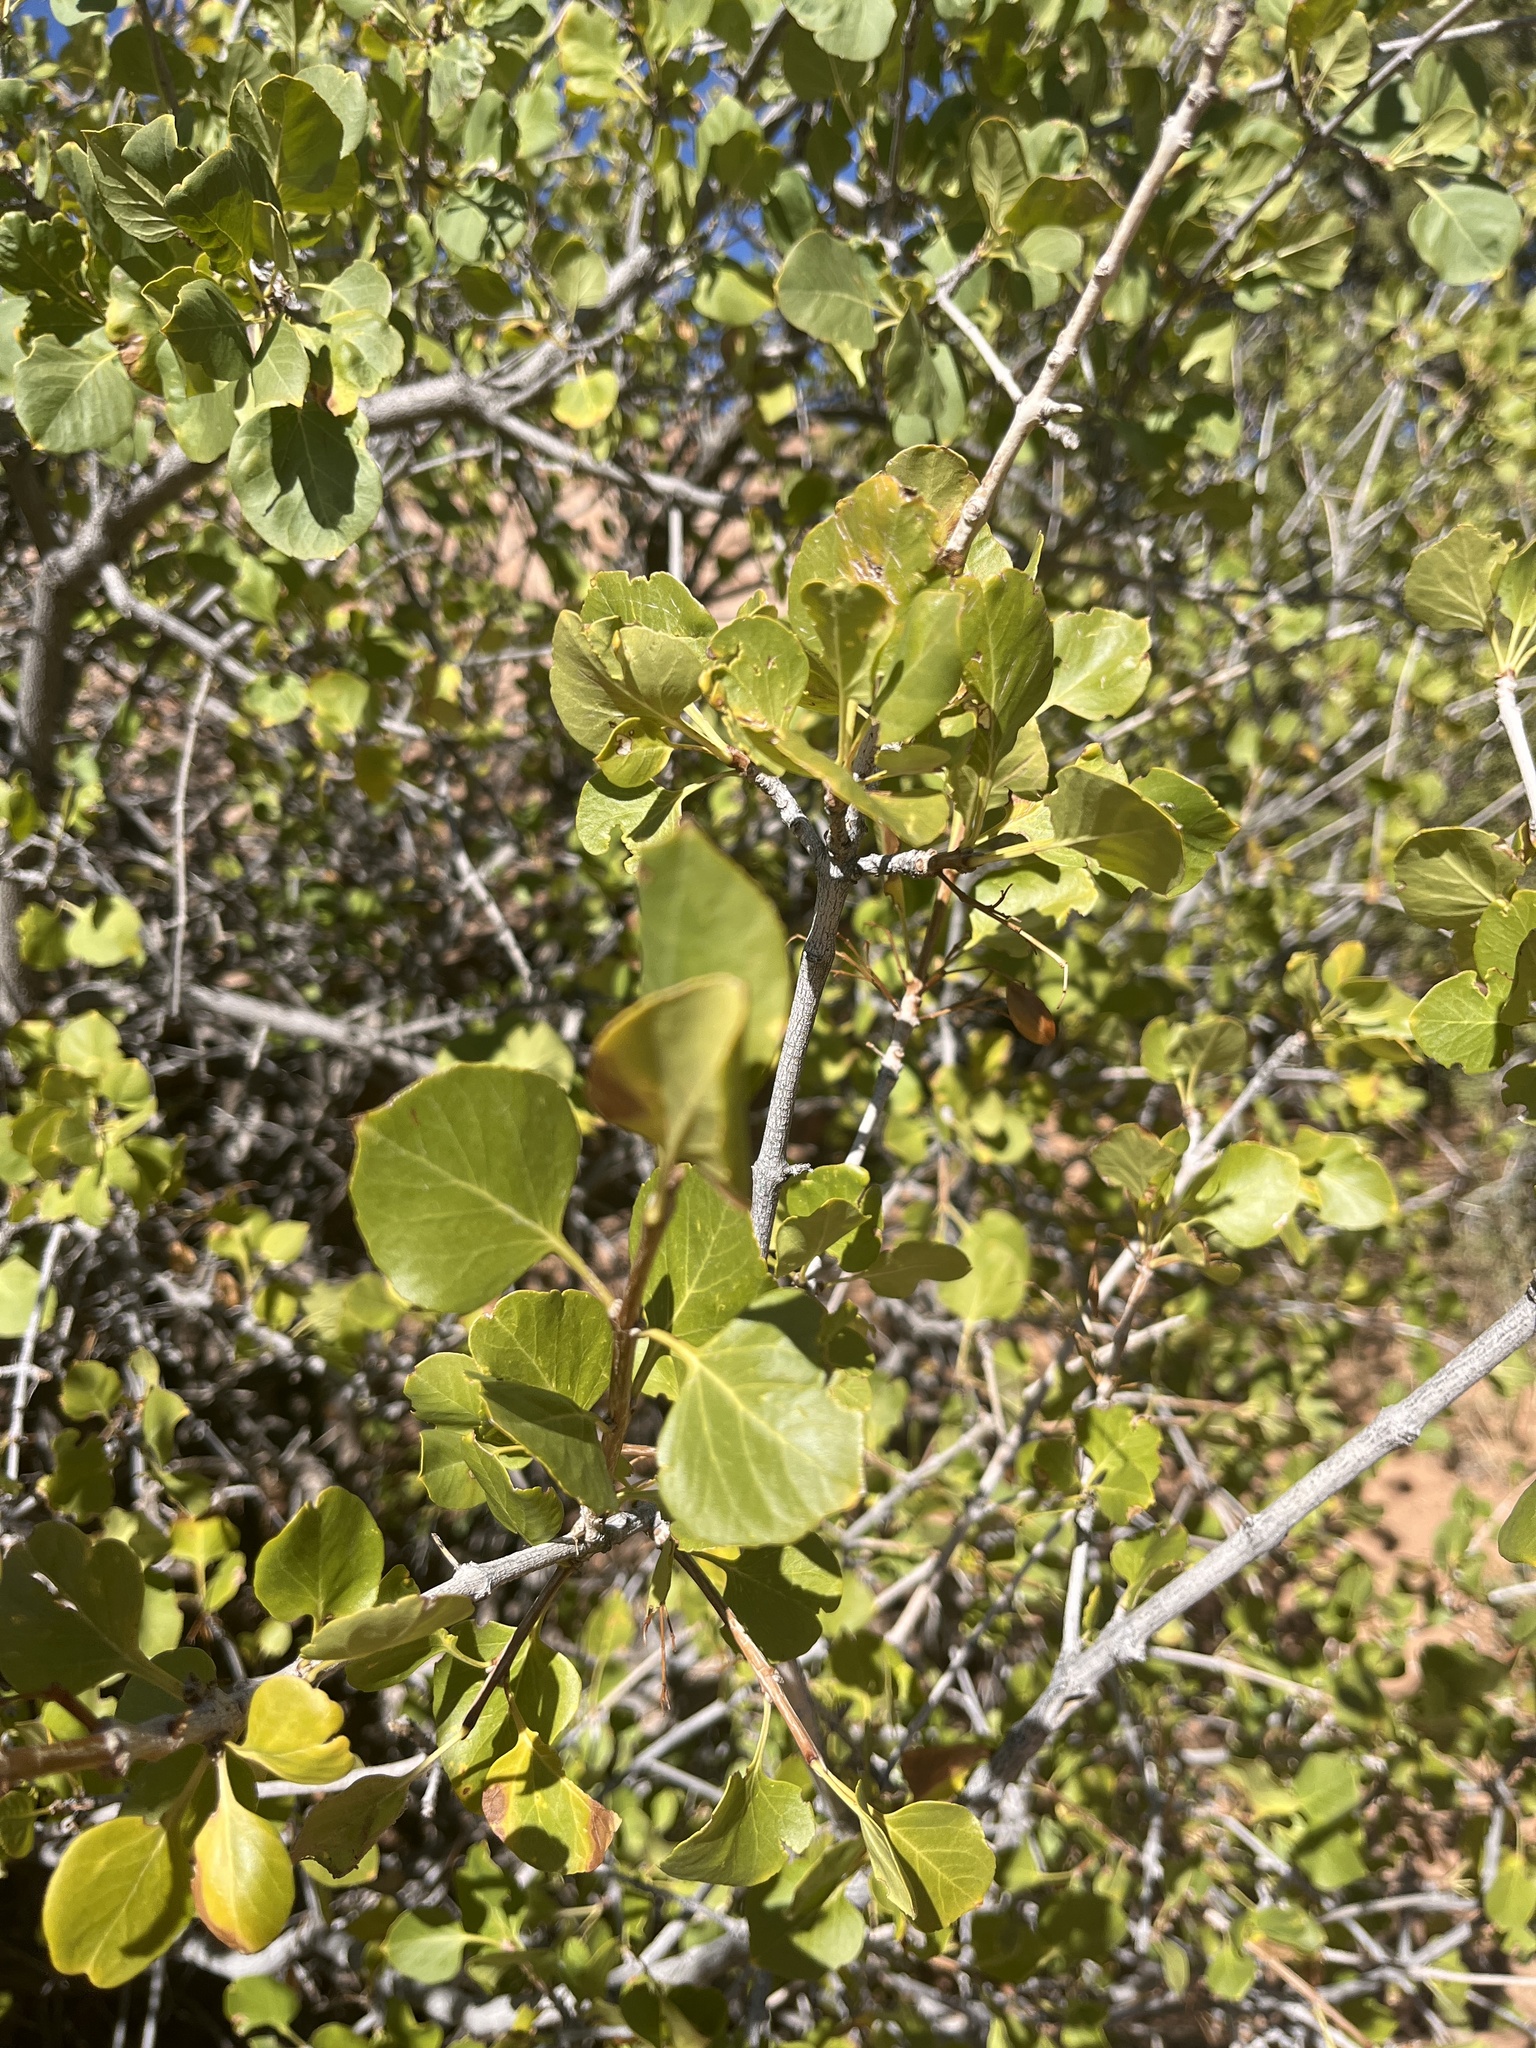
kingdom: Plantae
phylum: Tracheophyta
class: Magnoliopsida
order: Lamiales
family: Oleaceae
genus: Fraxinus
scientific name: Fraxinus anomala
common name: Utah ash
